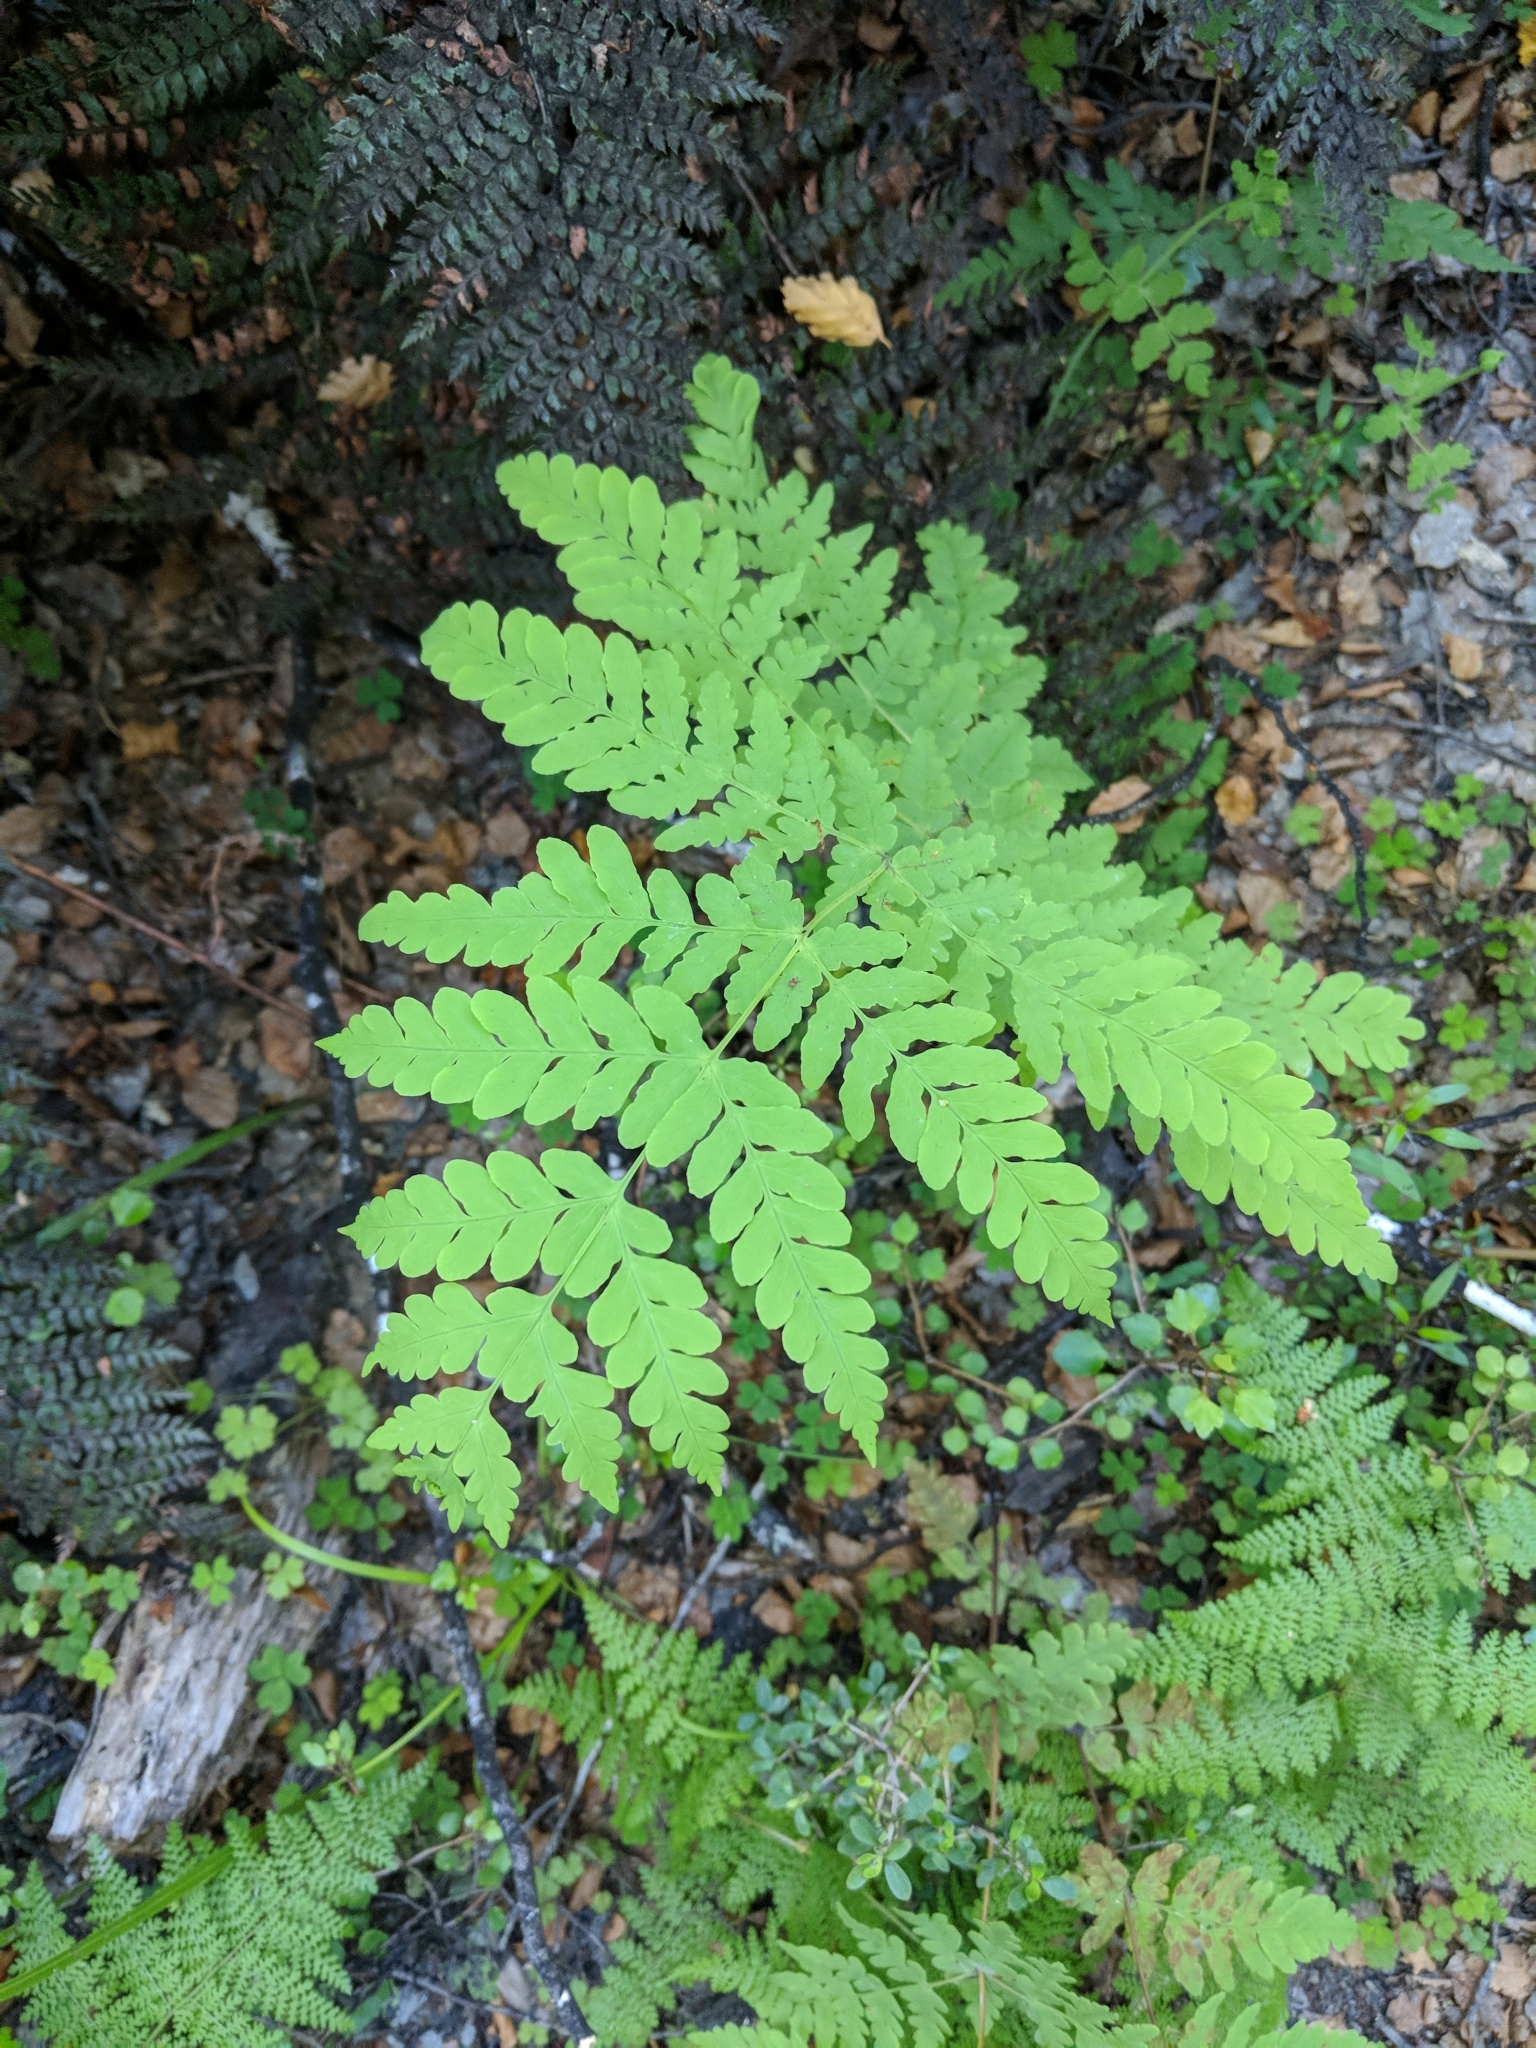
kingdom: Plantae
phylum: Tracheophyta
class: Polypodiopsida
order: Polypodiales
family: Dennstaedtiaceae
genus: Histiopteris
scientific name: Histiopteris incisa
